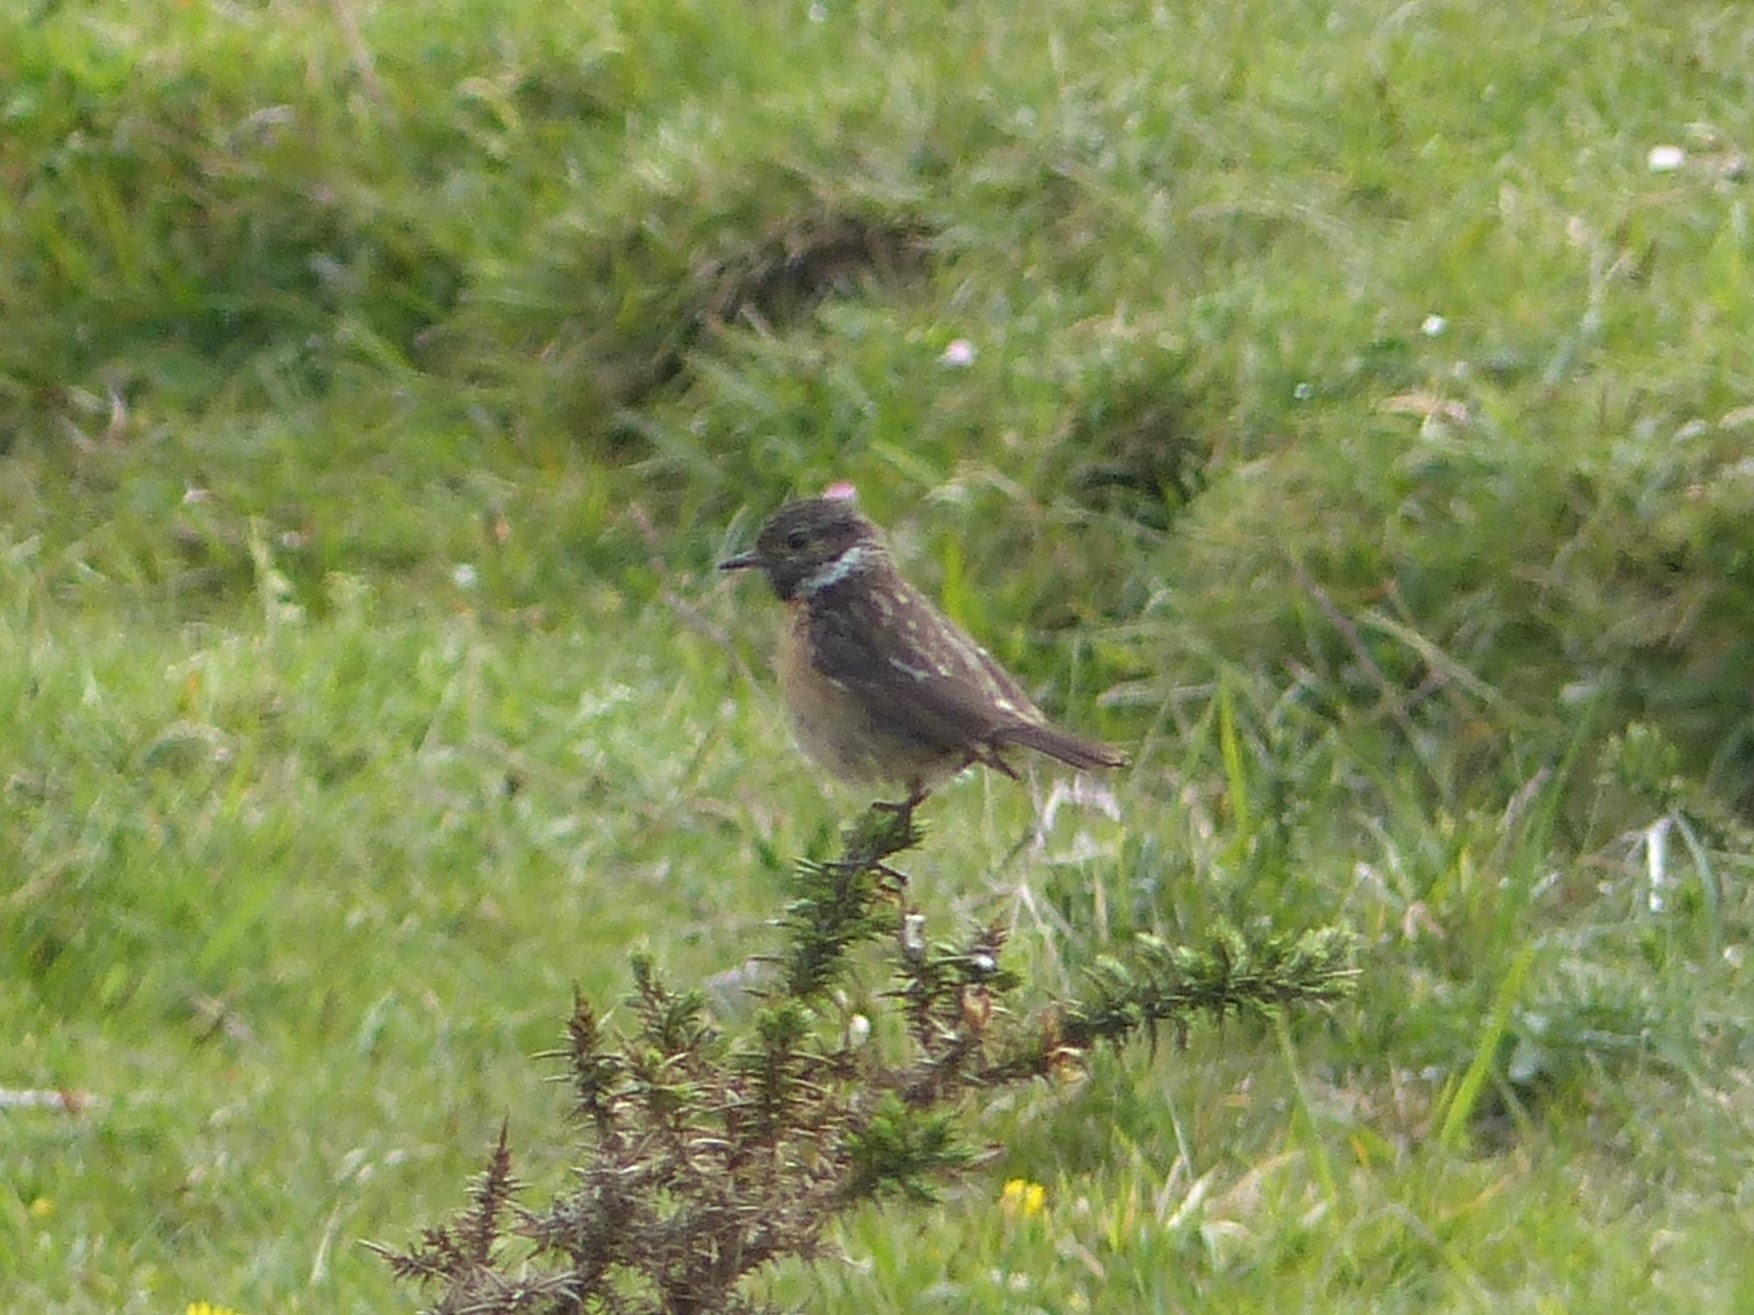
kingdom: Animalia
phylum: Chordata
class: Aves
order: Passeriformes
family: Muscicapidae
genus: Saxicola
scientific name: Saxicola rubicola
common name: European stonechat
